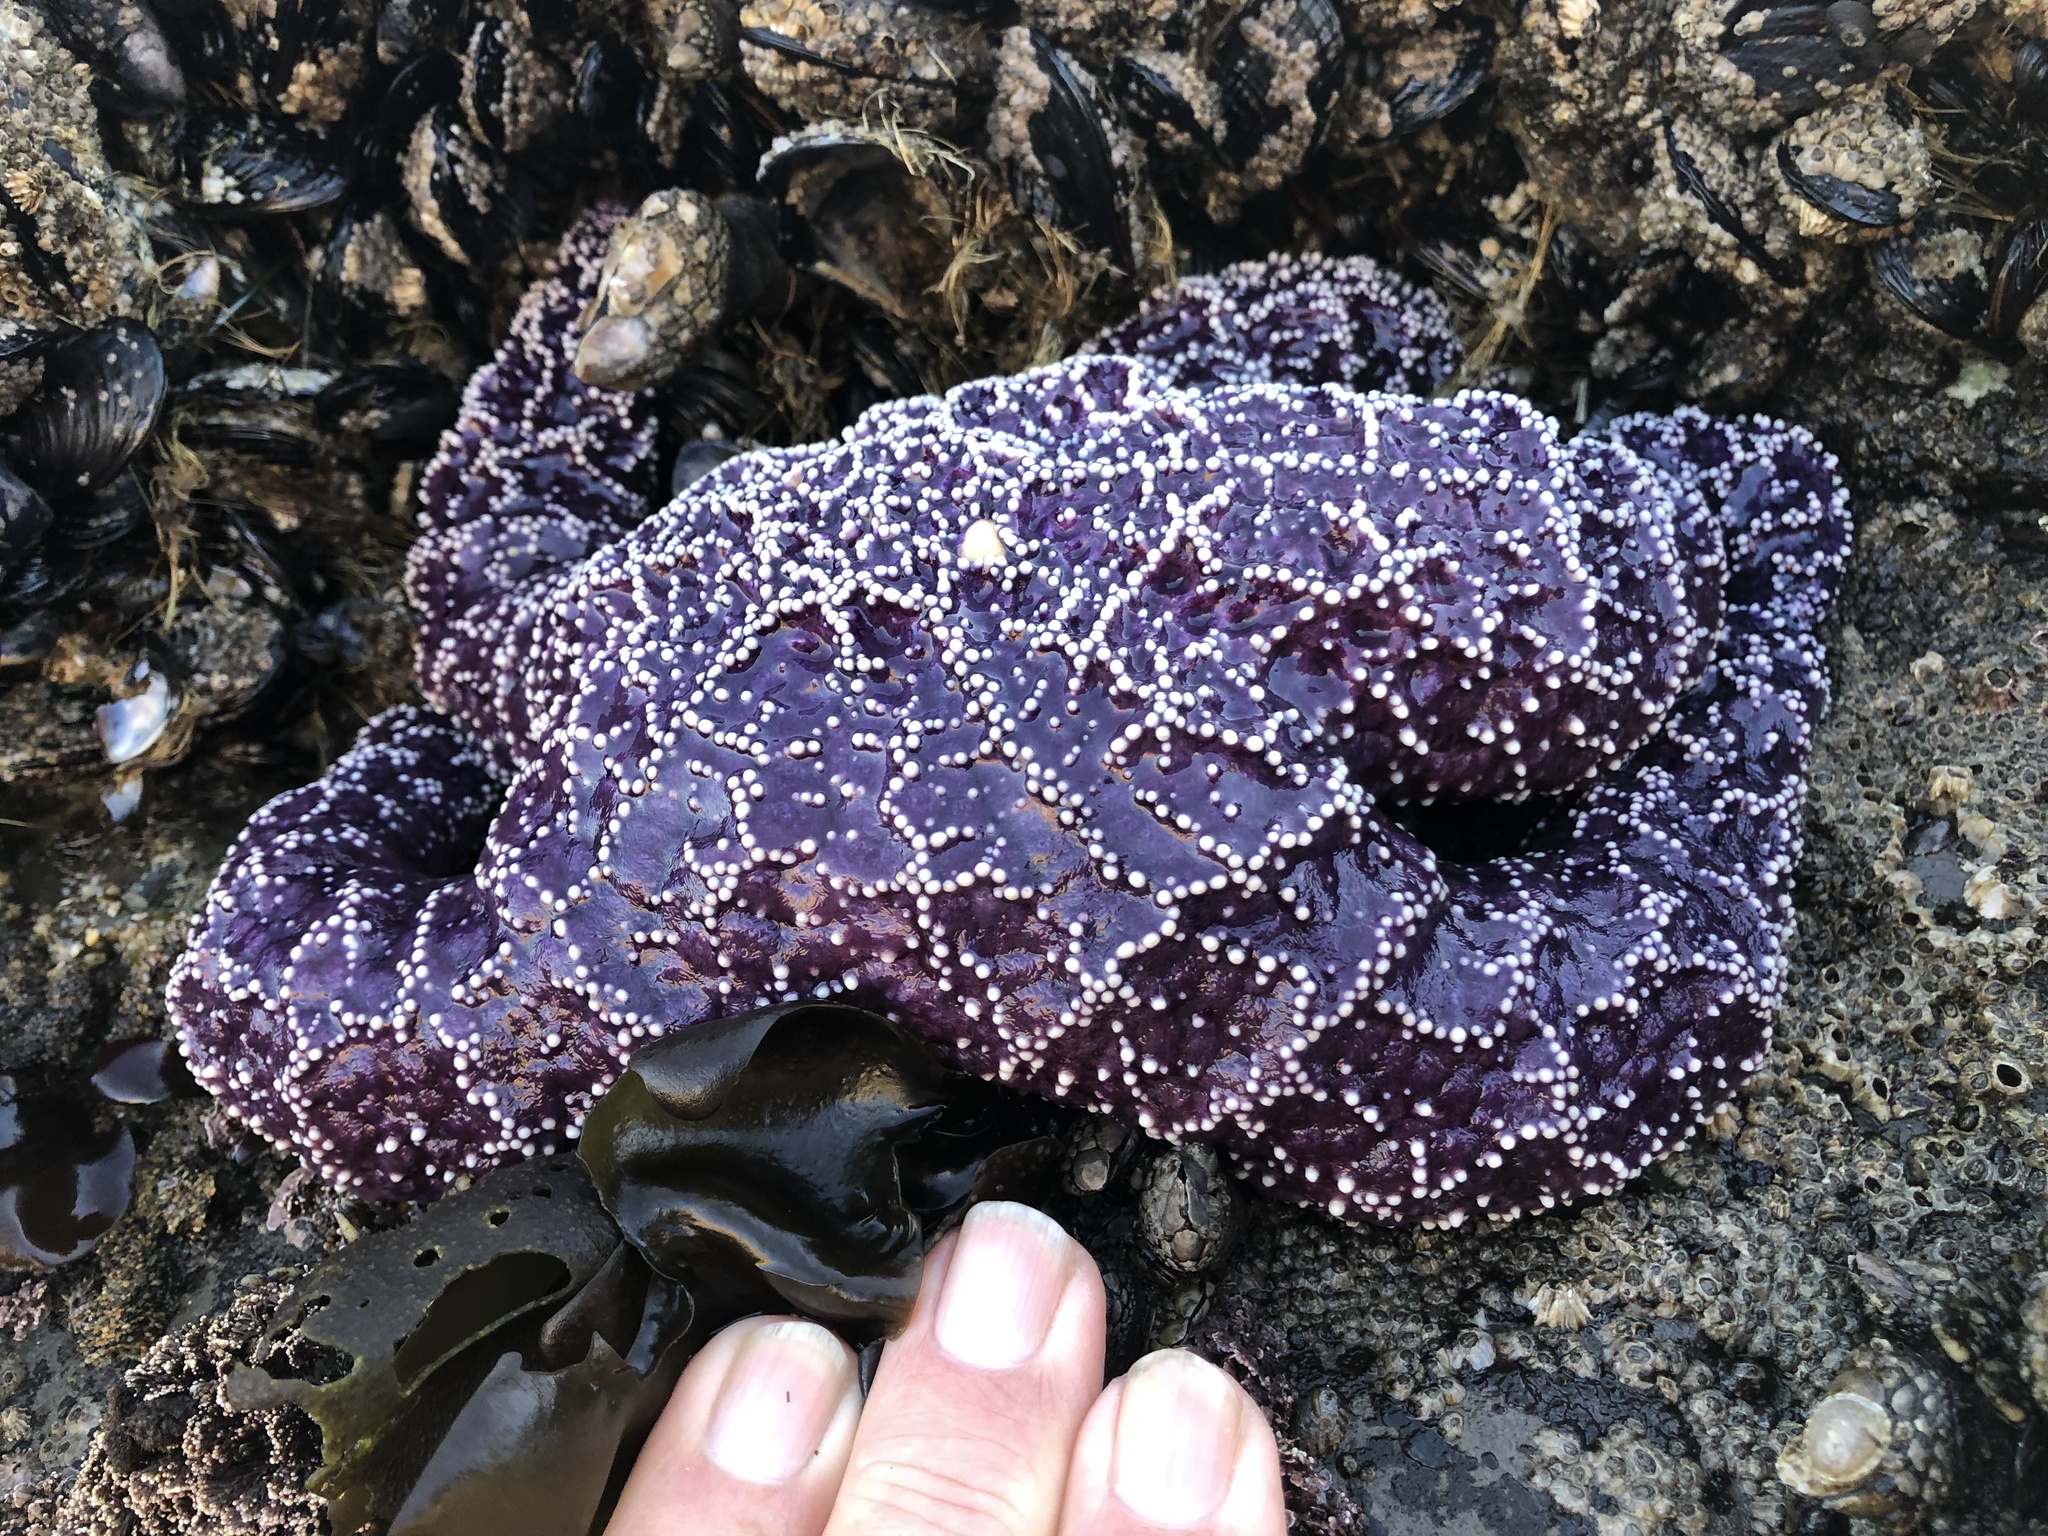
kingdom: Animalia
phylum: Echinodermata
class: Asteroidea
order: Forcipulatida
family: Asteriidae
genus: Pisaster
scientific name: Pisaster ochraceus
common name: Ochre stars
